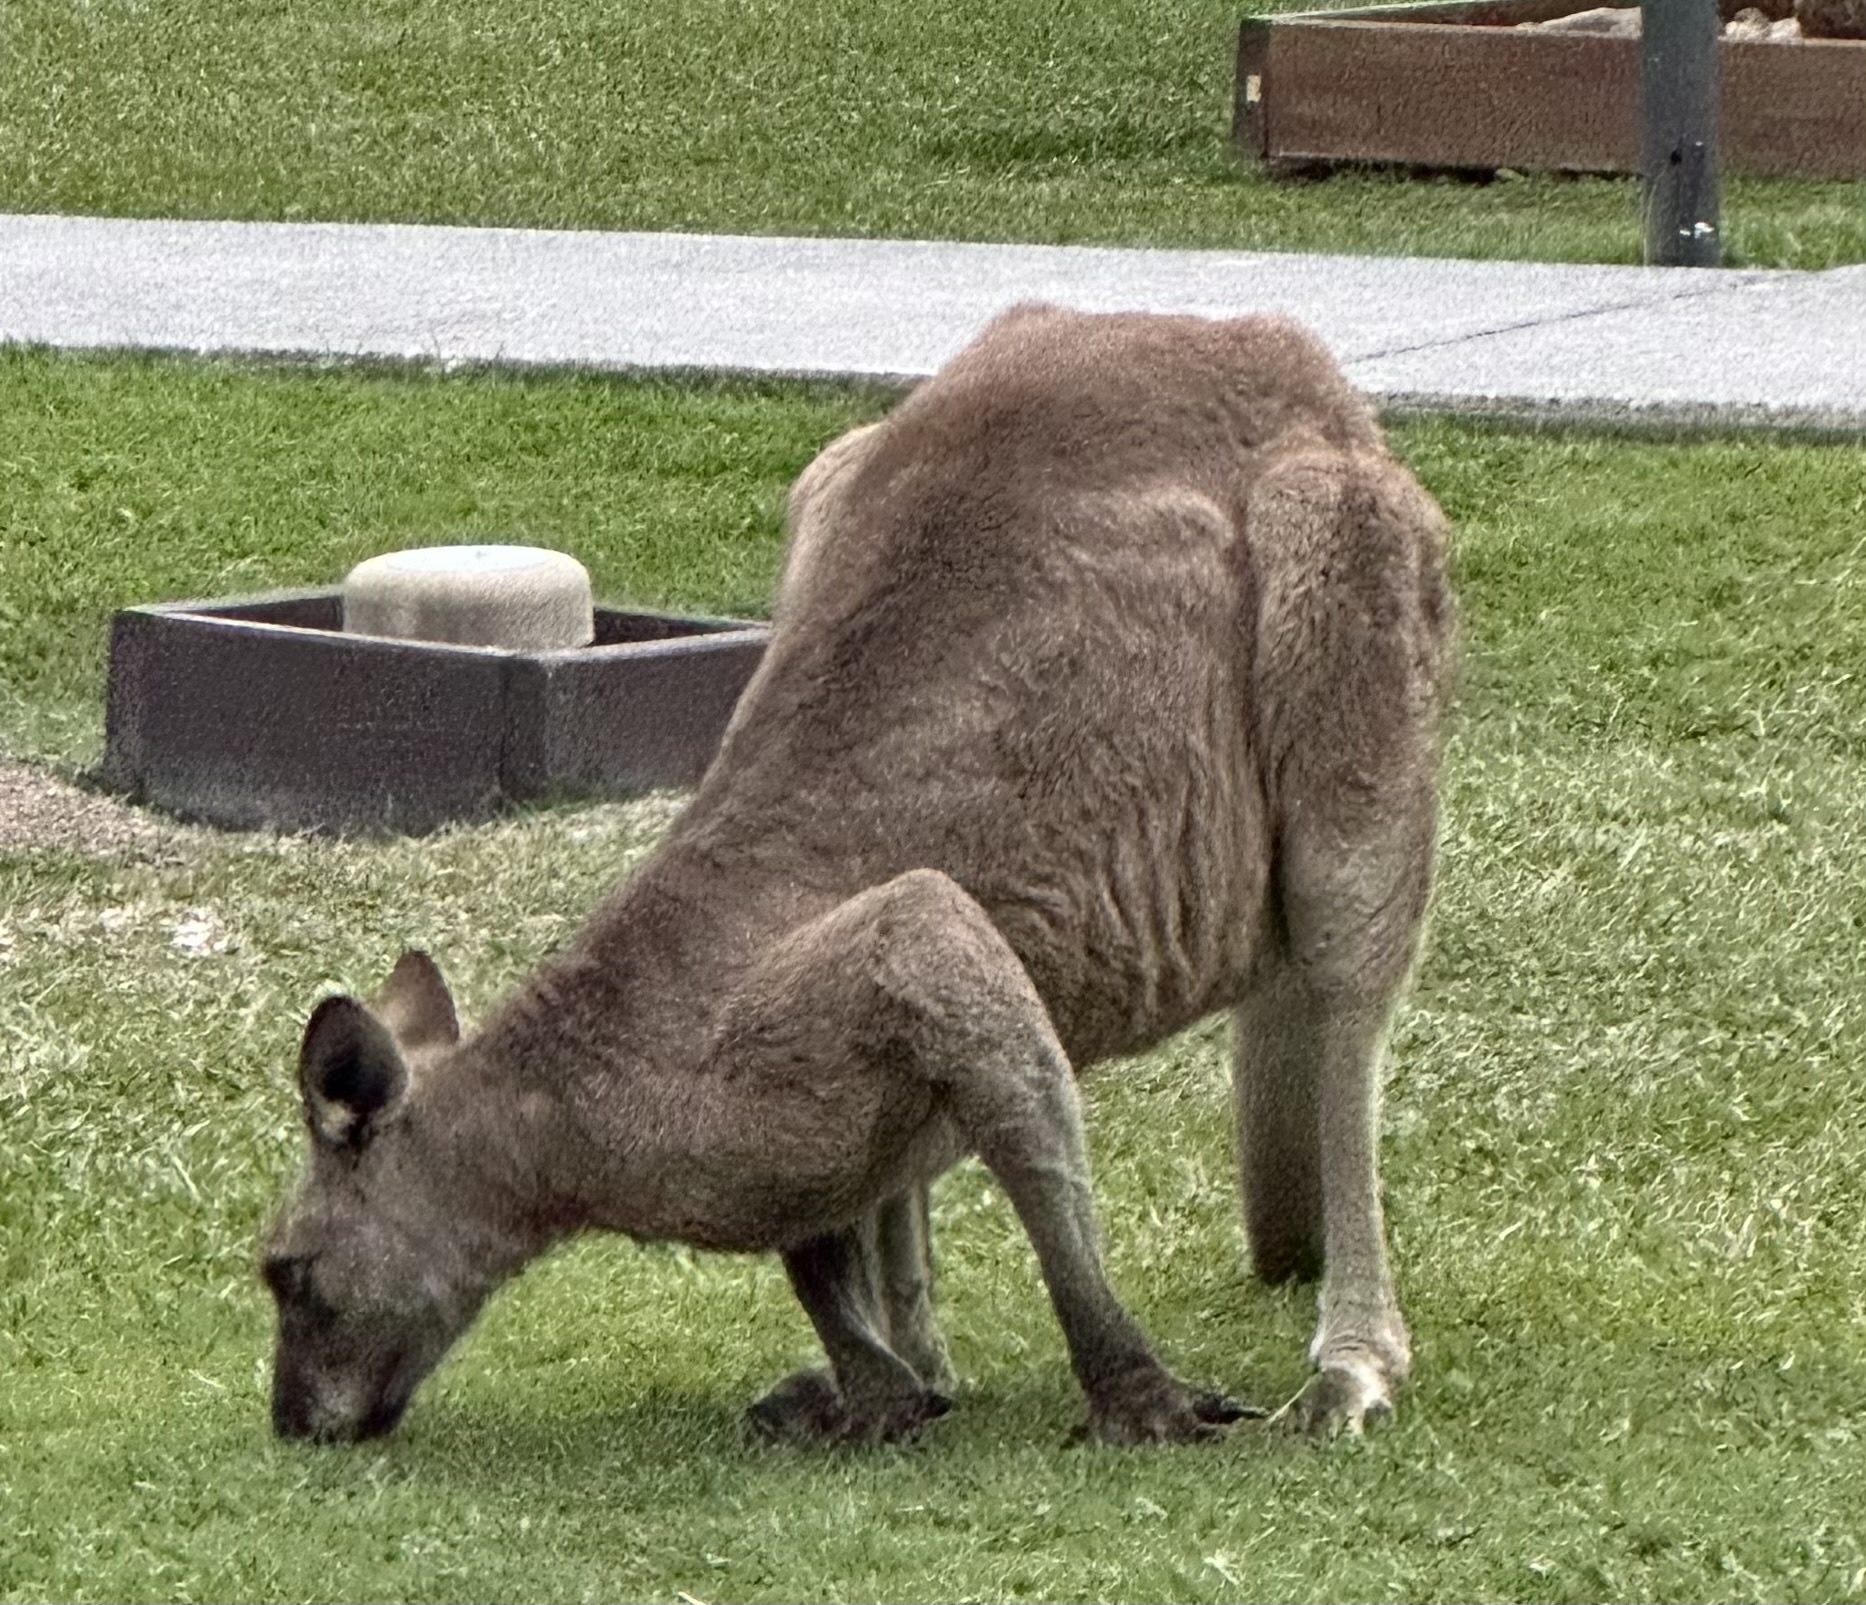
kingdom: Animalia
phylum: Chordata
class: Mammalia
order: Diprotodontia
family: Macropodidae
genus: Macropus
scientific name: Macropus giganteus
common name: Eastern grey kangaroo
